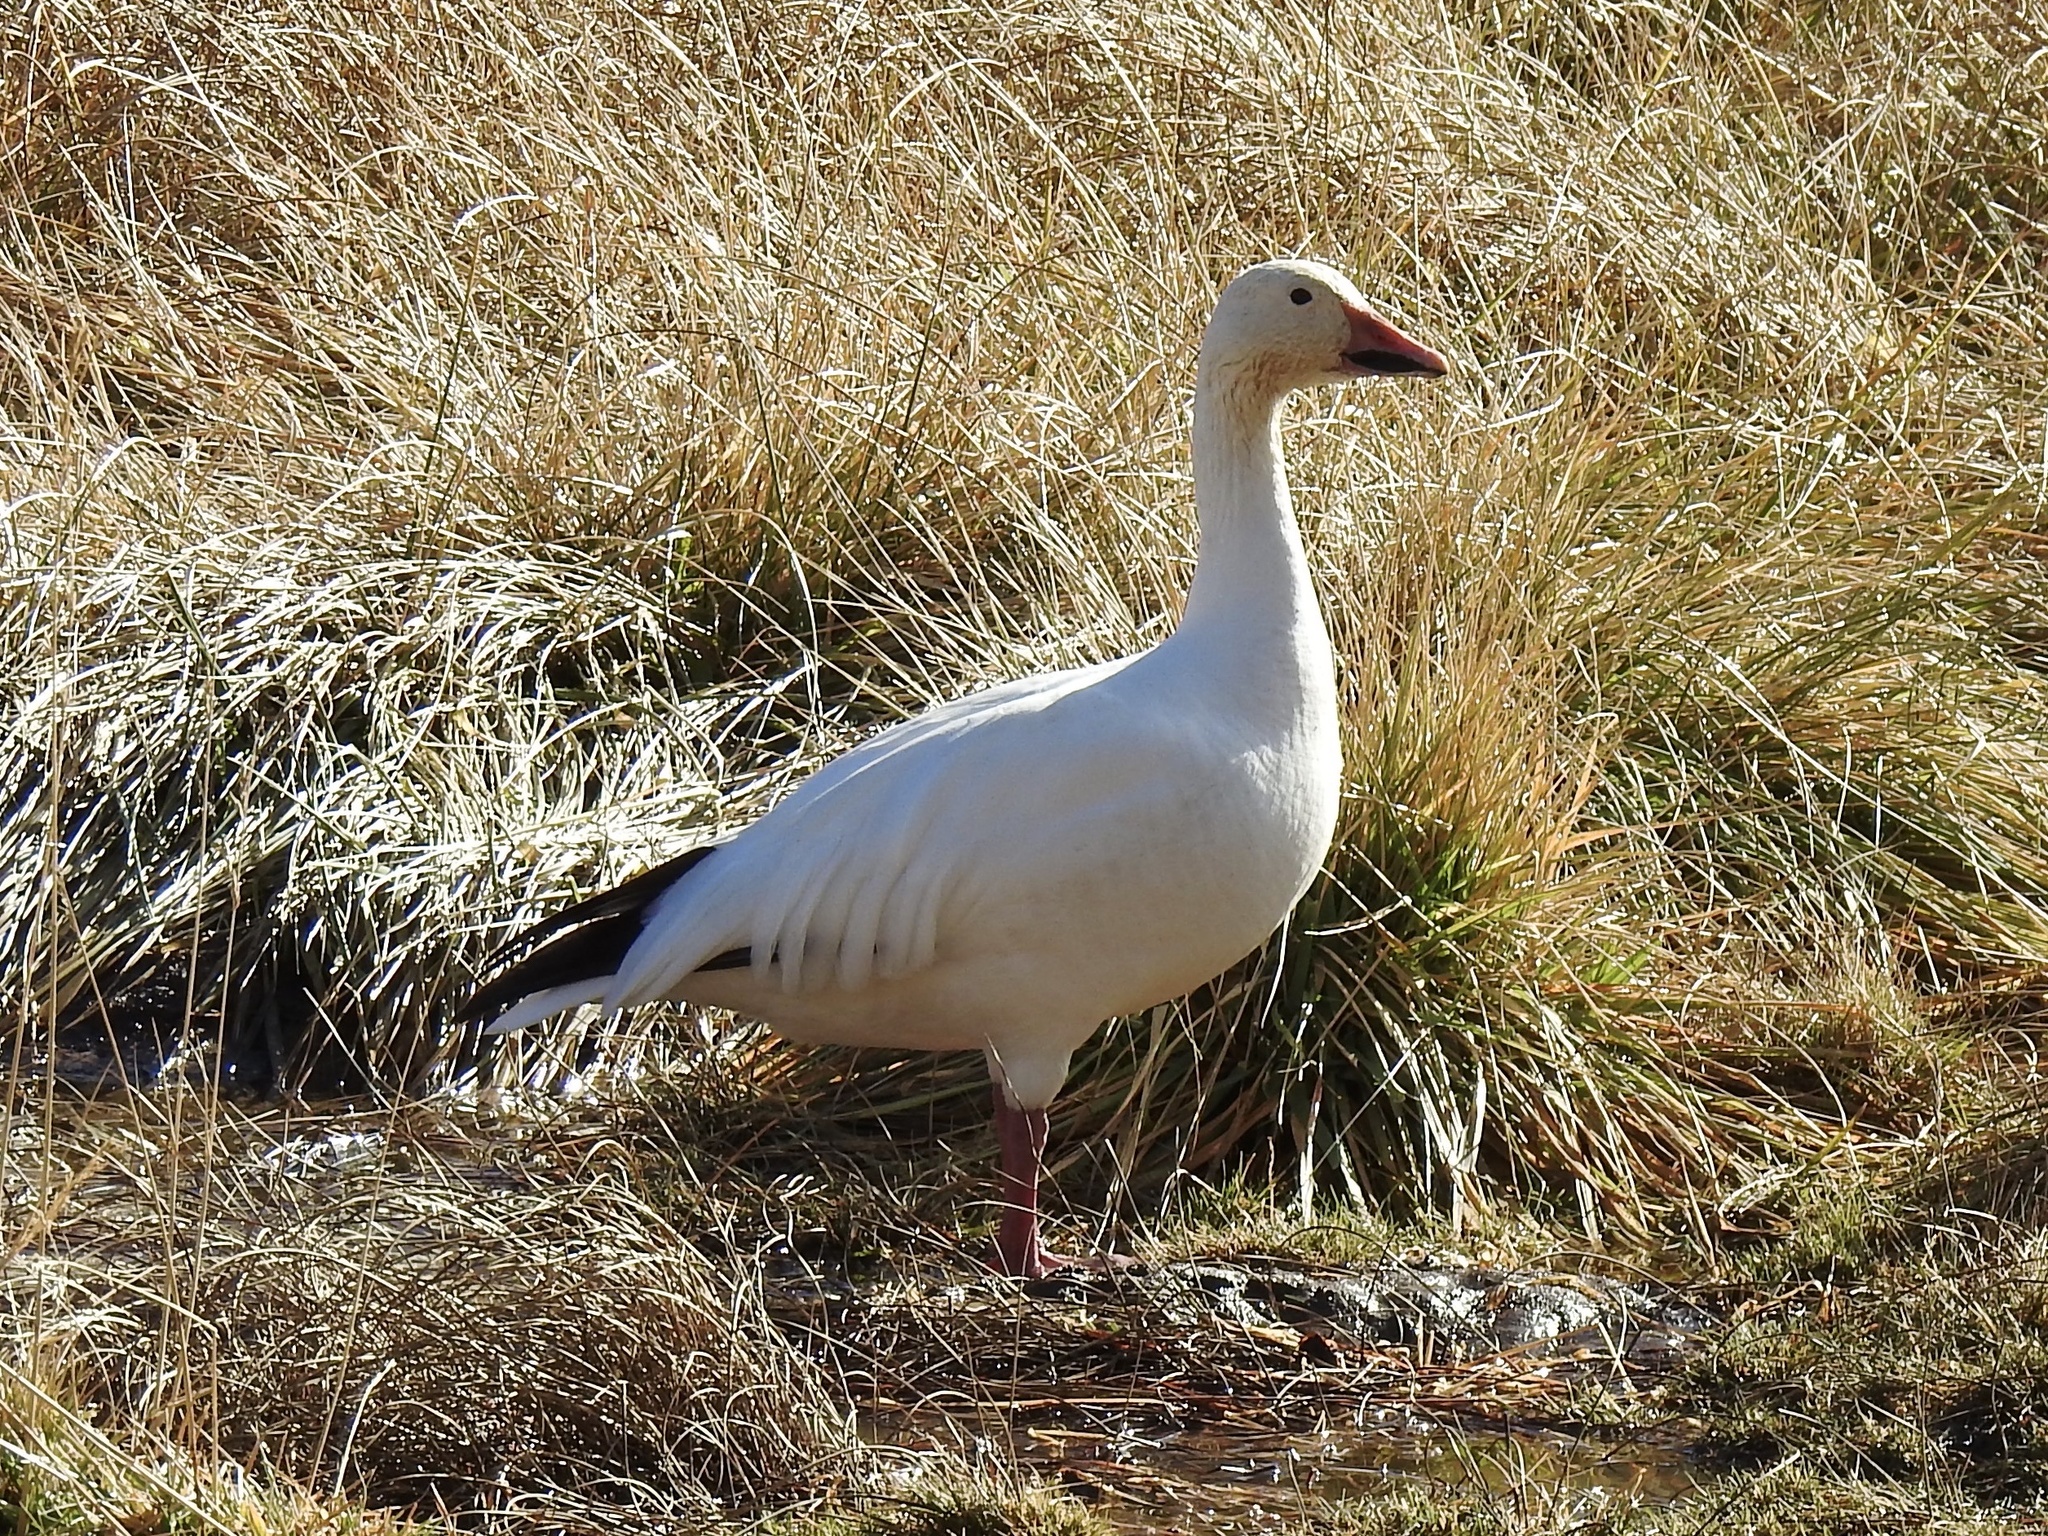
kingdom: Animalia
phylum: Chordata
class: Aves
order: Anseriformes
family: Anatidae
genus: Anser
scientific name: Anser caerulescens
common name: Snow goose
